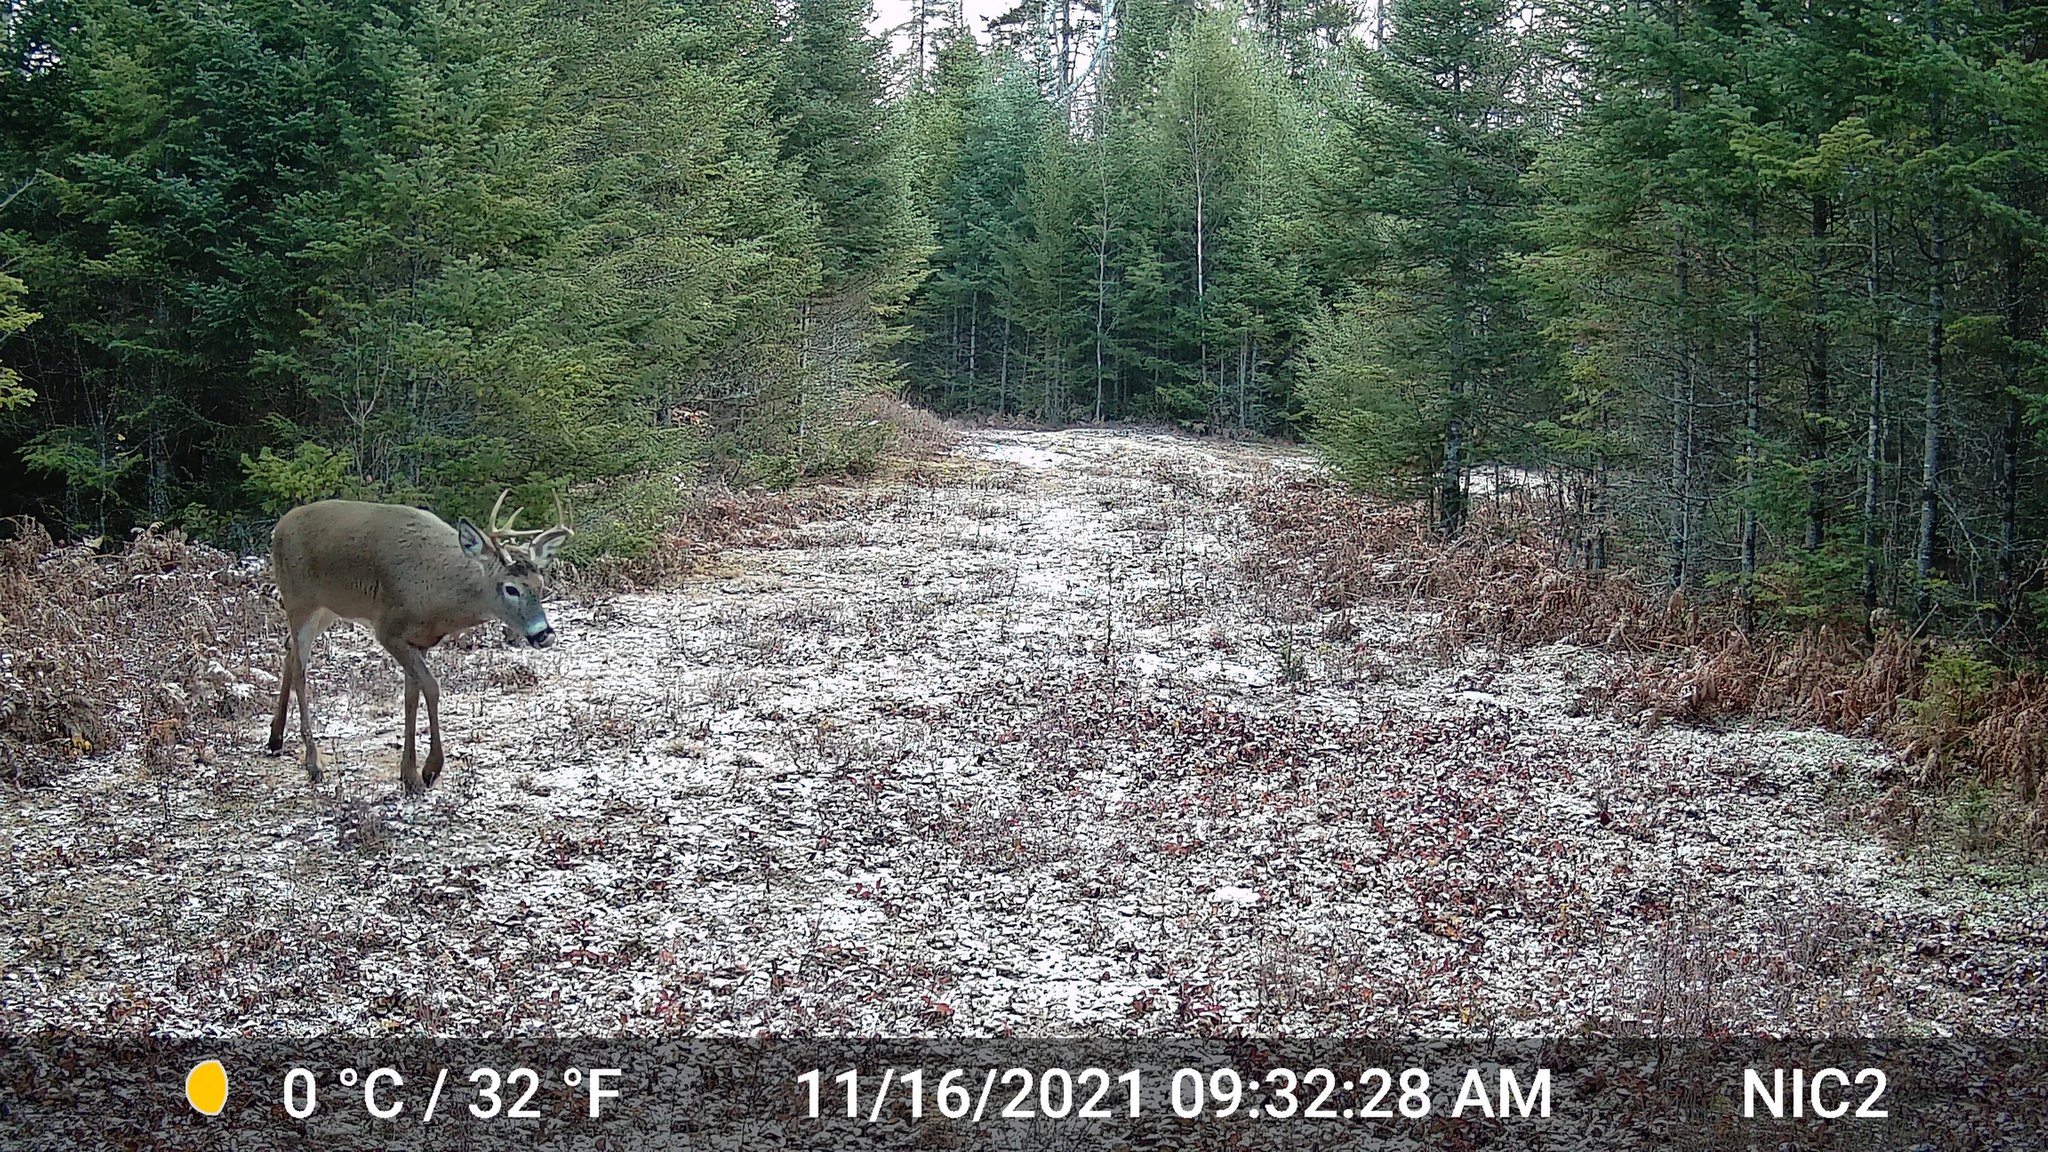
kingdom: Animalia
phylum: Chordata
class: Mammalia
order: Artiodactyla
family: Cervidae
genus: Odocoileus
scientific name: Odocoileus virginianus
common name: White-tailed deer
